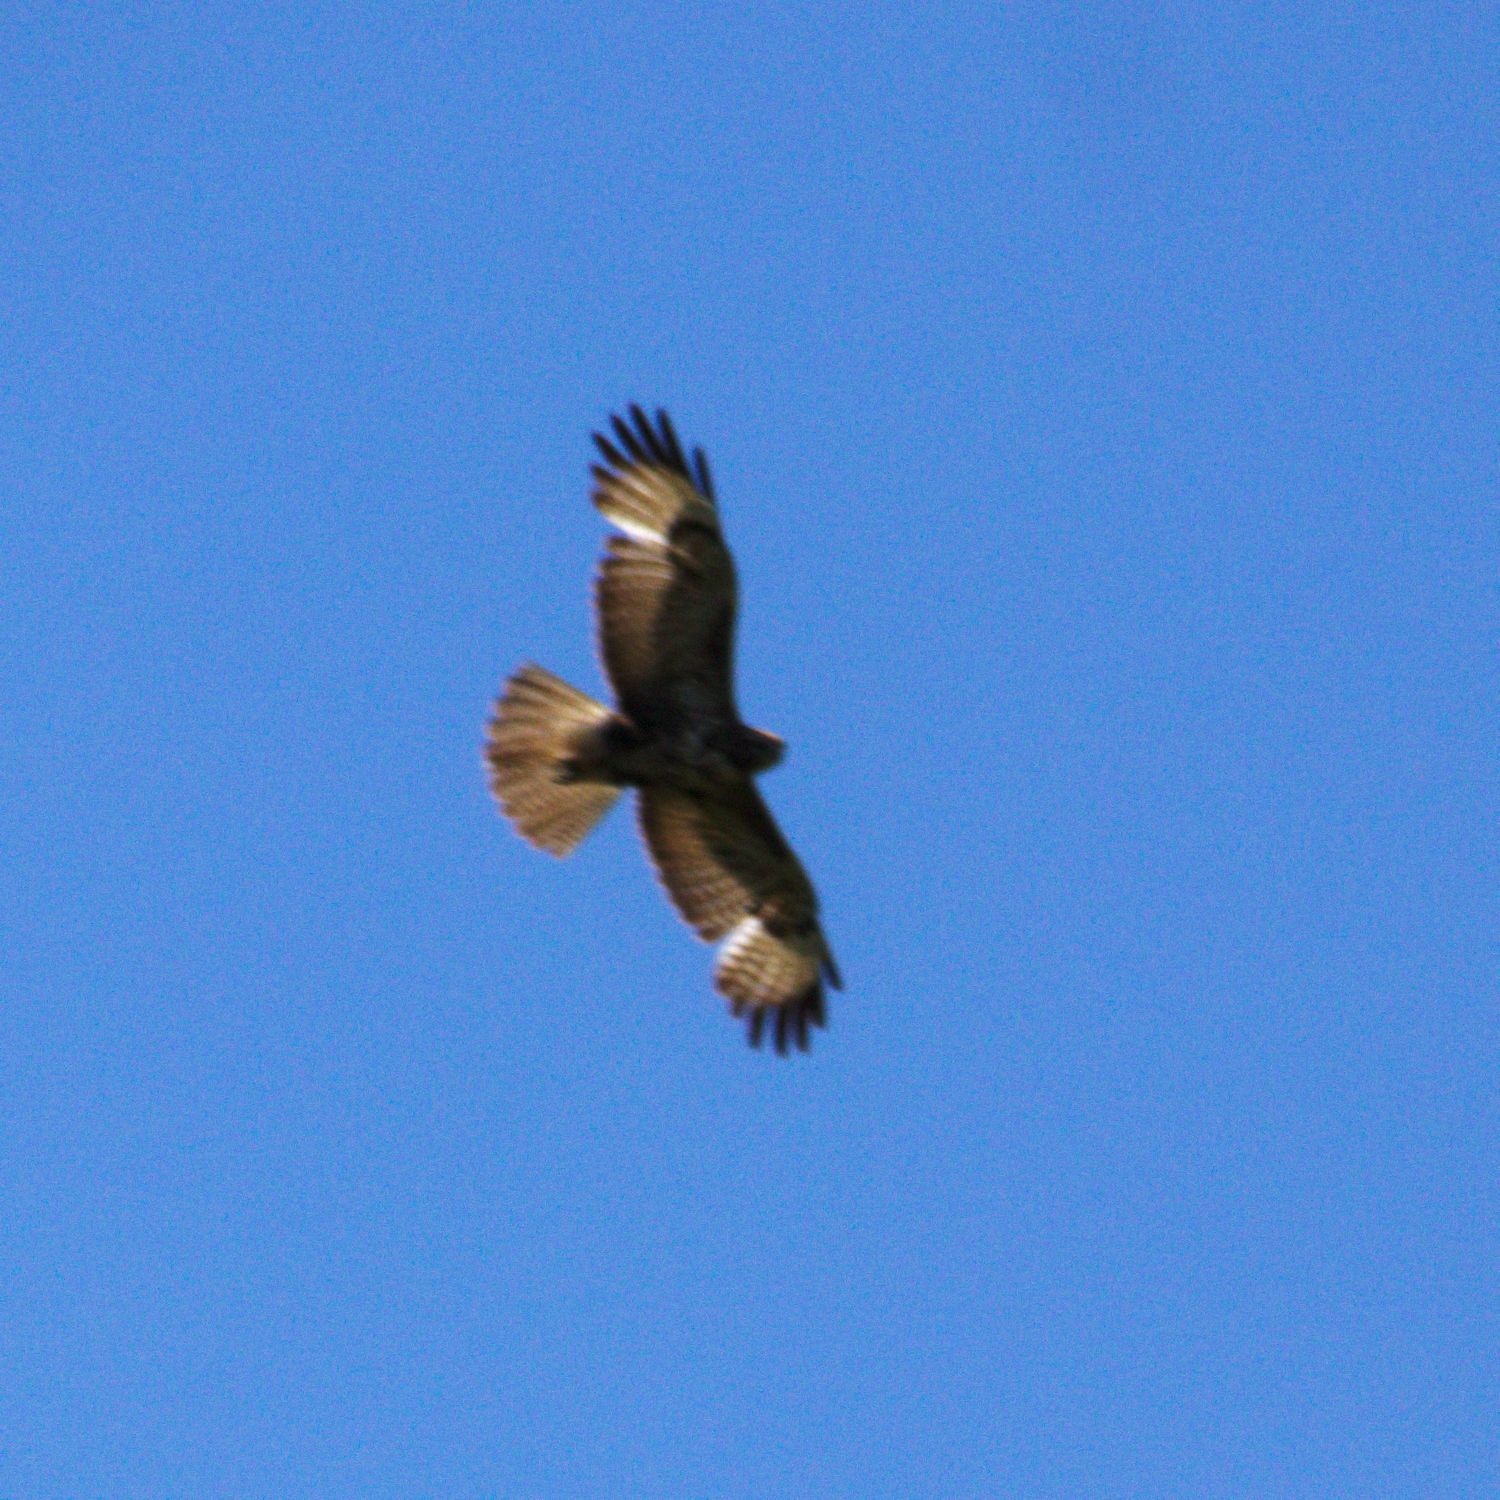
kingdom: Animalia
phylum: Chordata
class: Aves
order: Accipitriformes
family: Accipitridae
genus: Buteo
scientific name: Buteo buteo
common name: Common buzzard
